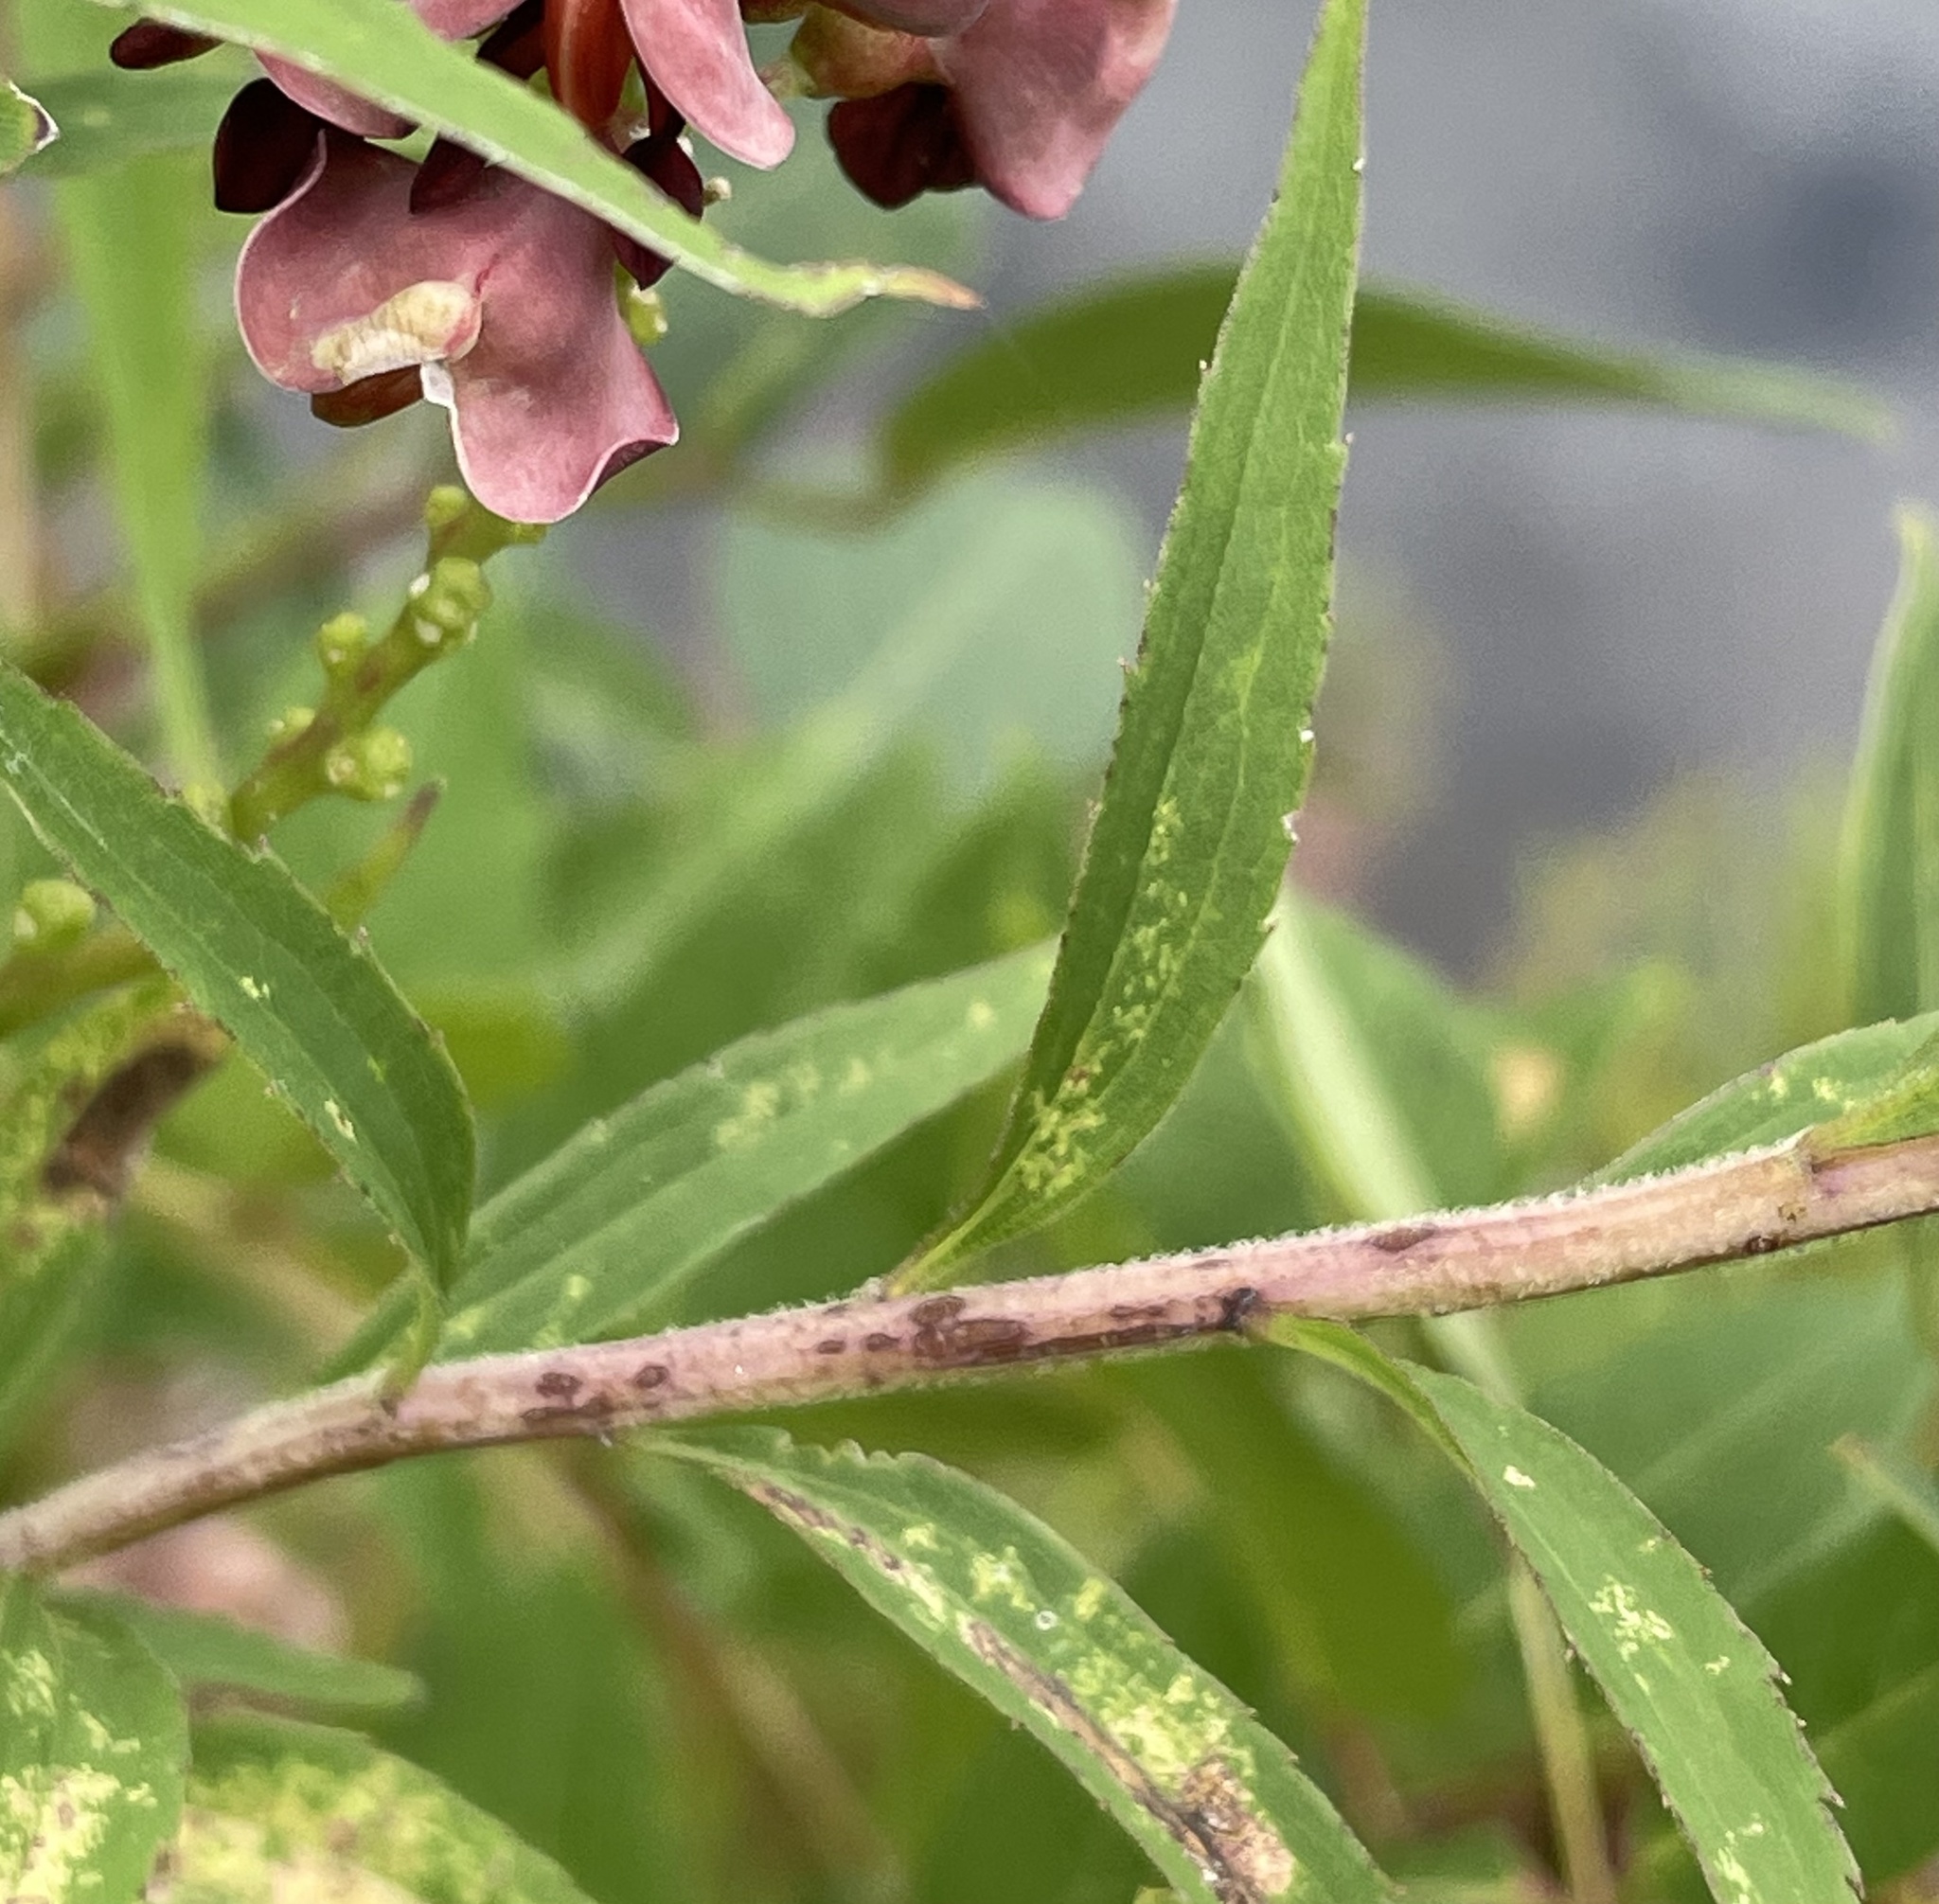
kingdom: Plantae
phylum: Tracheophyta
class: Magnoliopsida
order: Asterales
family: Asteraceae
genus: Solidago
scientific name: Solidago gigantea
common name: Giant goldenrod
